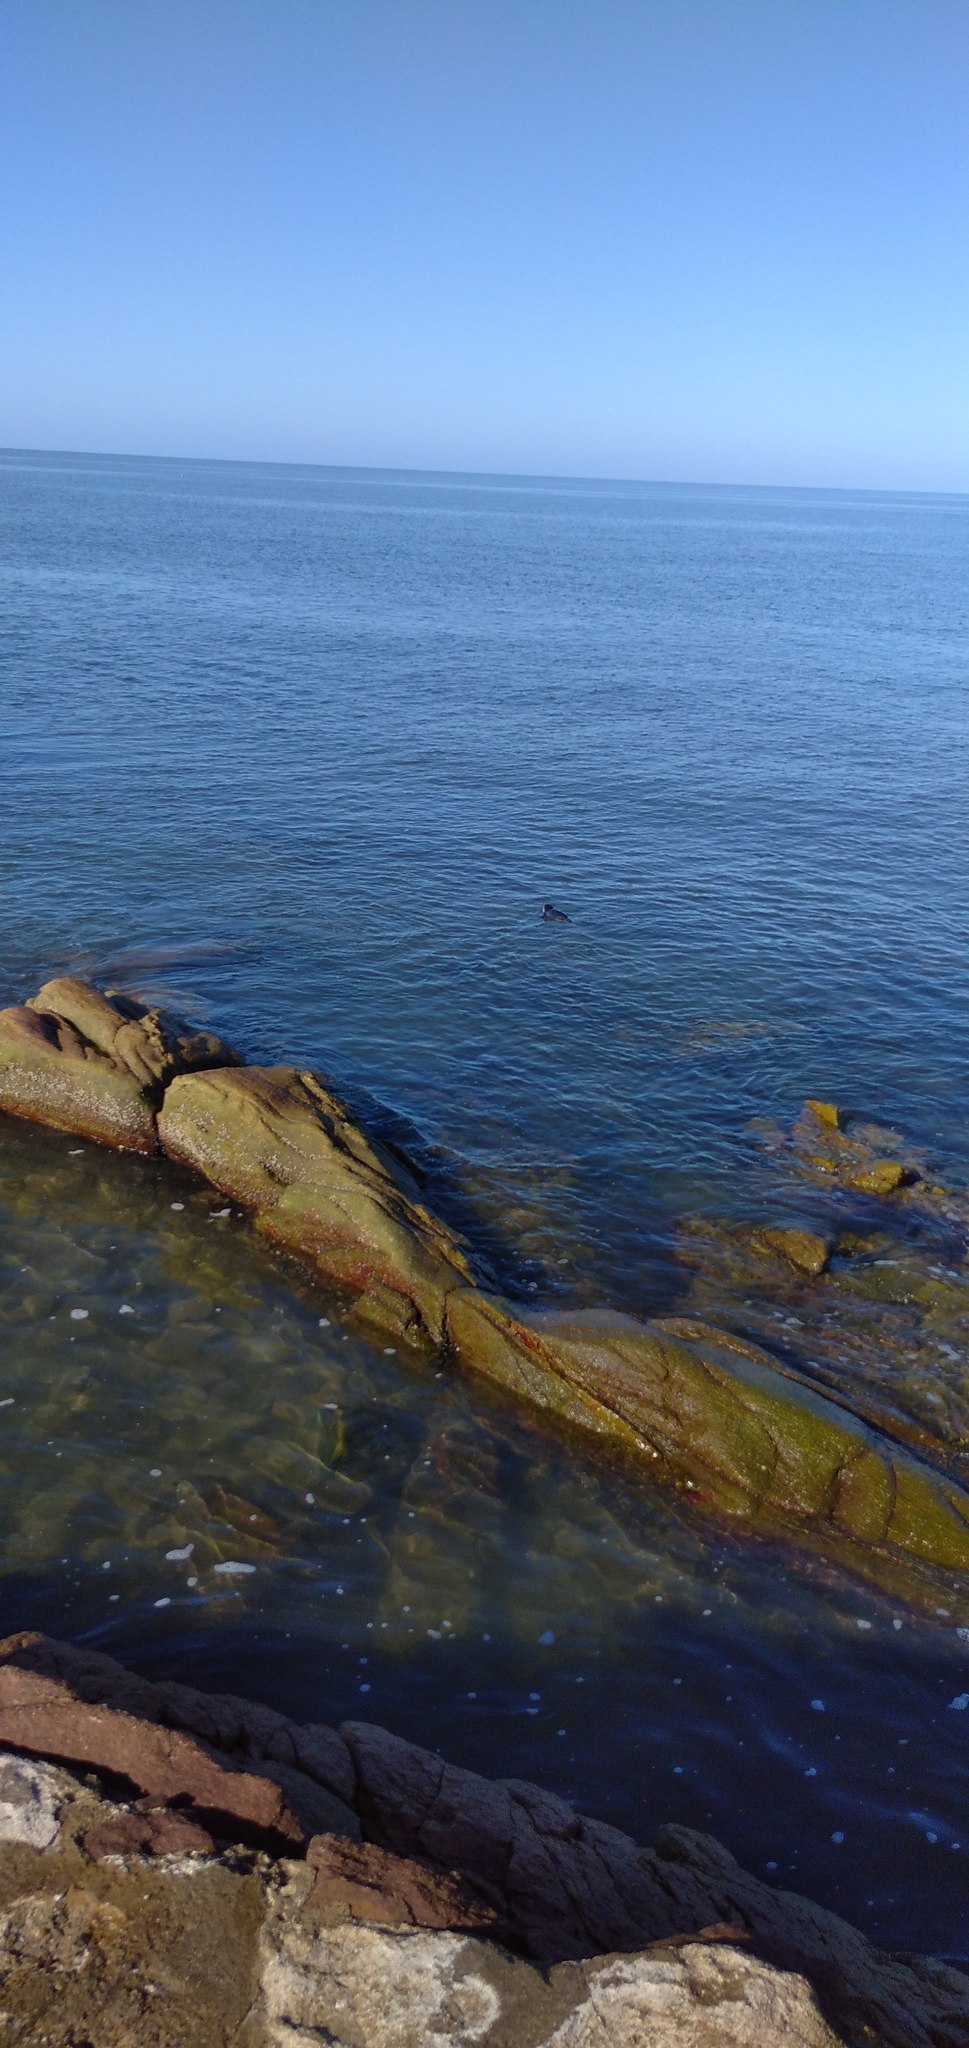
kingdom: Animalia
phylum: Chordata
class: Aves
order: Sphenisciformes
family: Spheniscidae
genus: Spheniscus
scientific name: Spheniscus magellanicus
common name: Magellanic penguin
